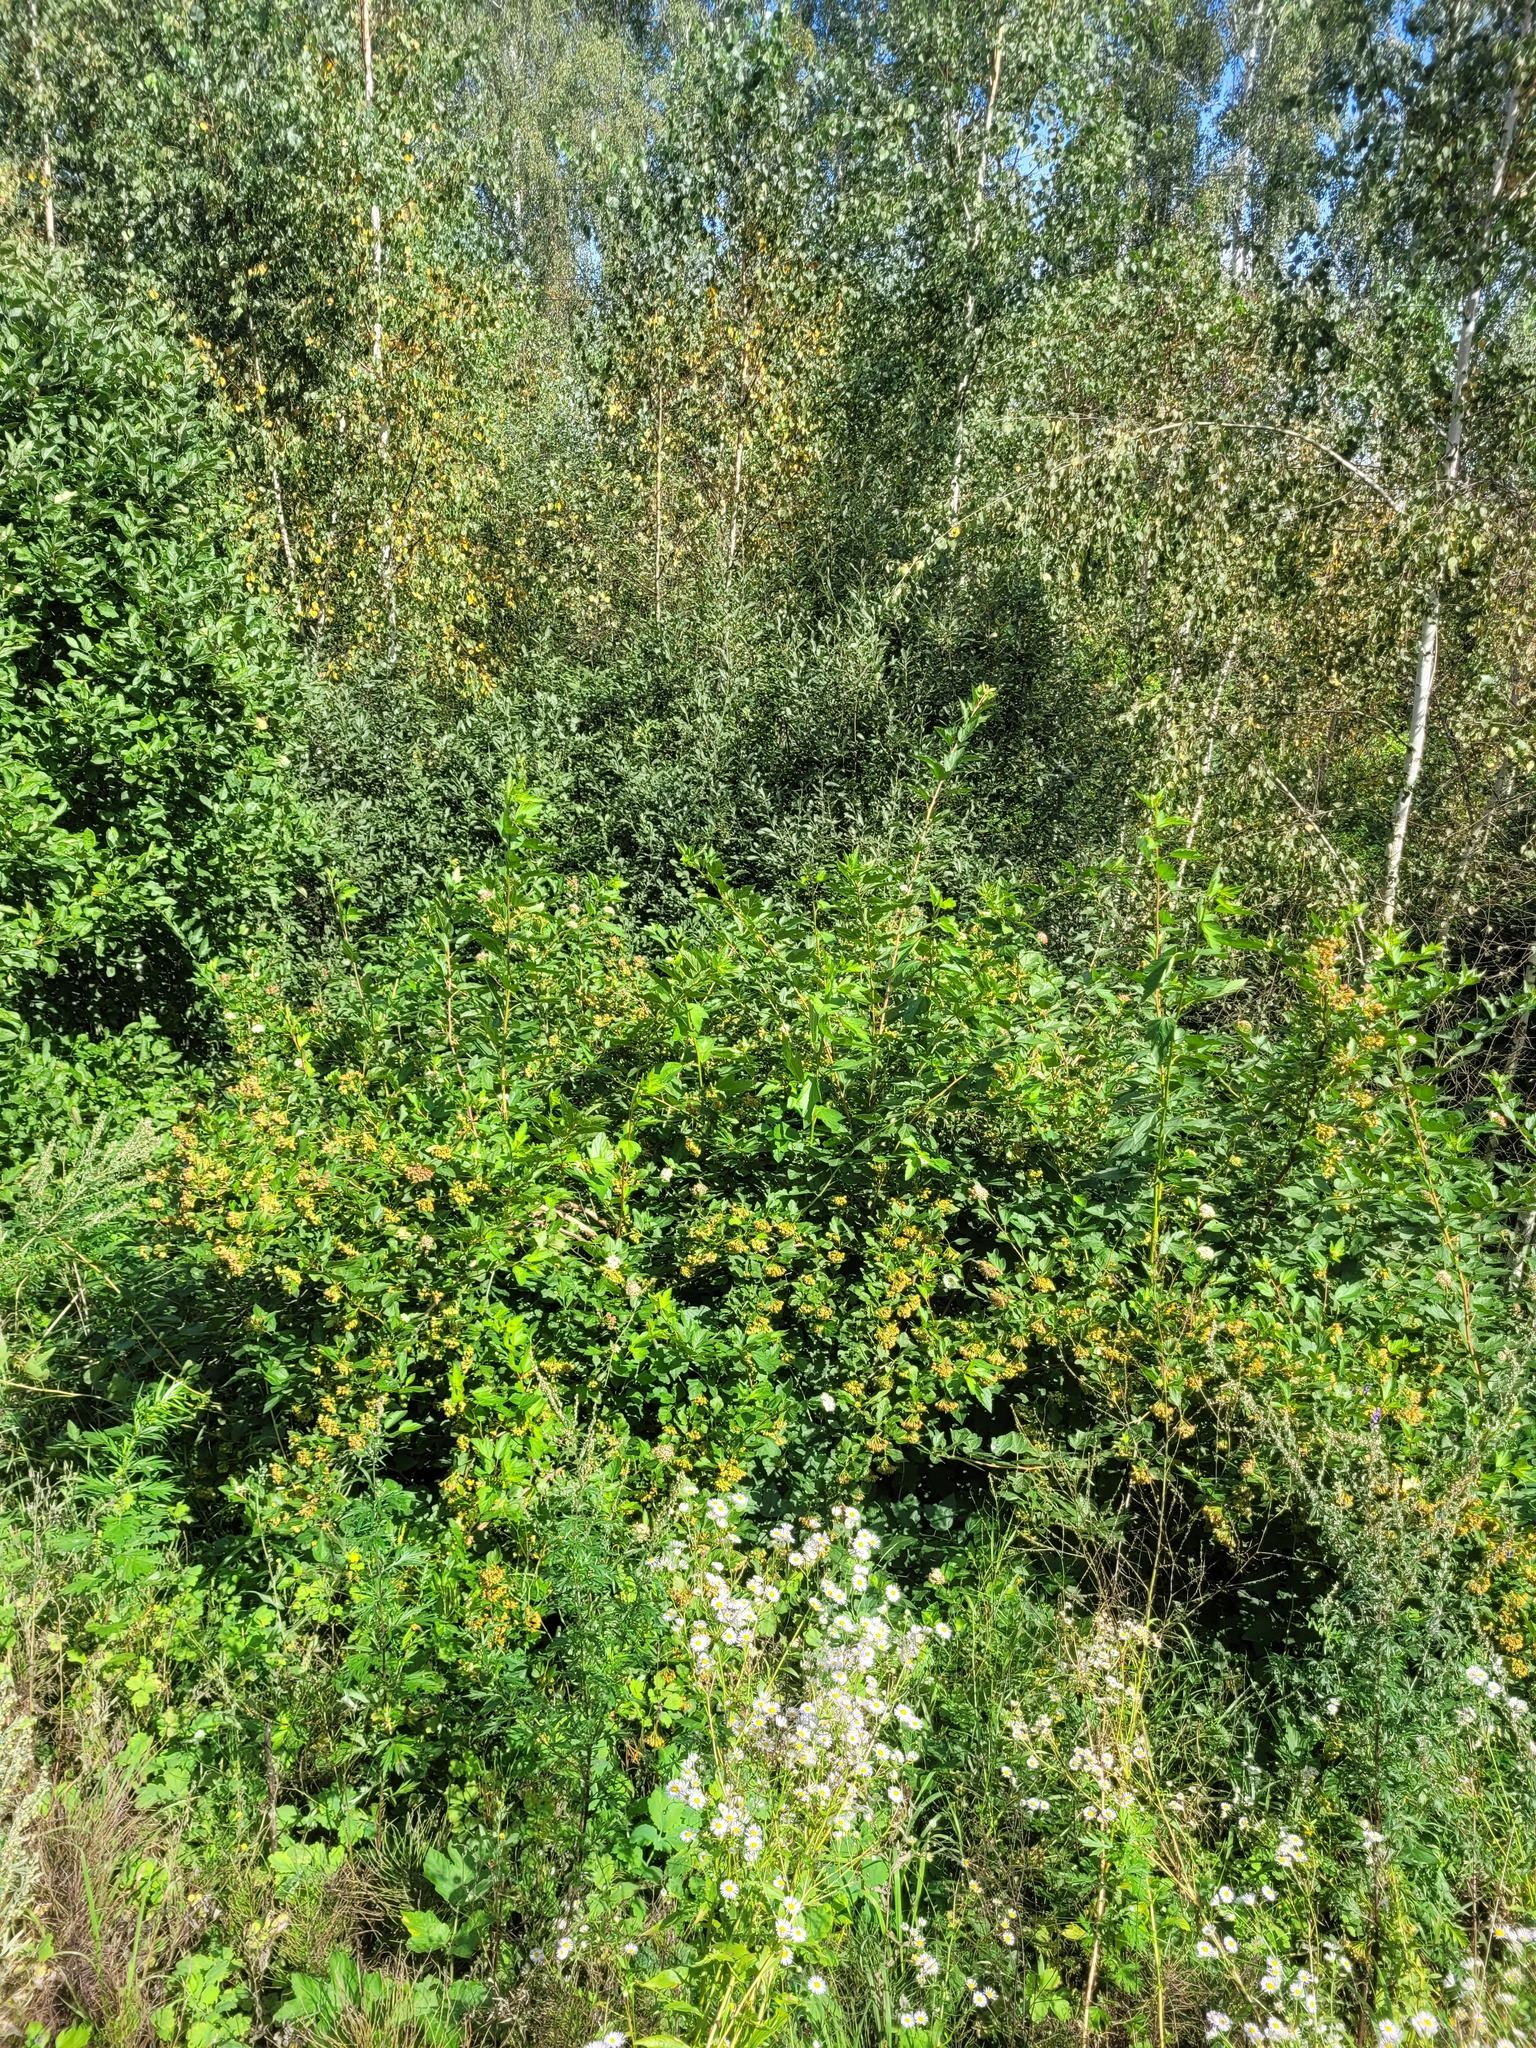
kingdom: Plantae
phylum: Tracheophyta
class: Magnoliopsida
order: Rosales
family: Rosaceae
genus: Physocarpus
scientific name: Physocarpus opulifolius
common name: Ninebark
